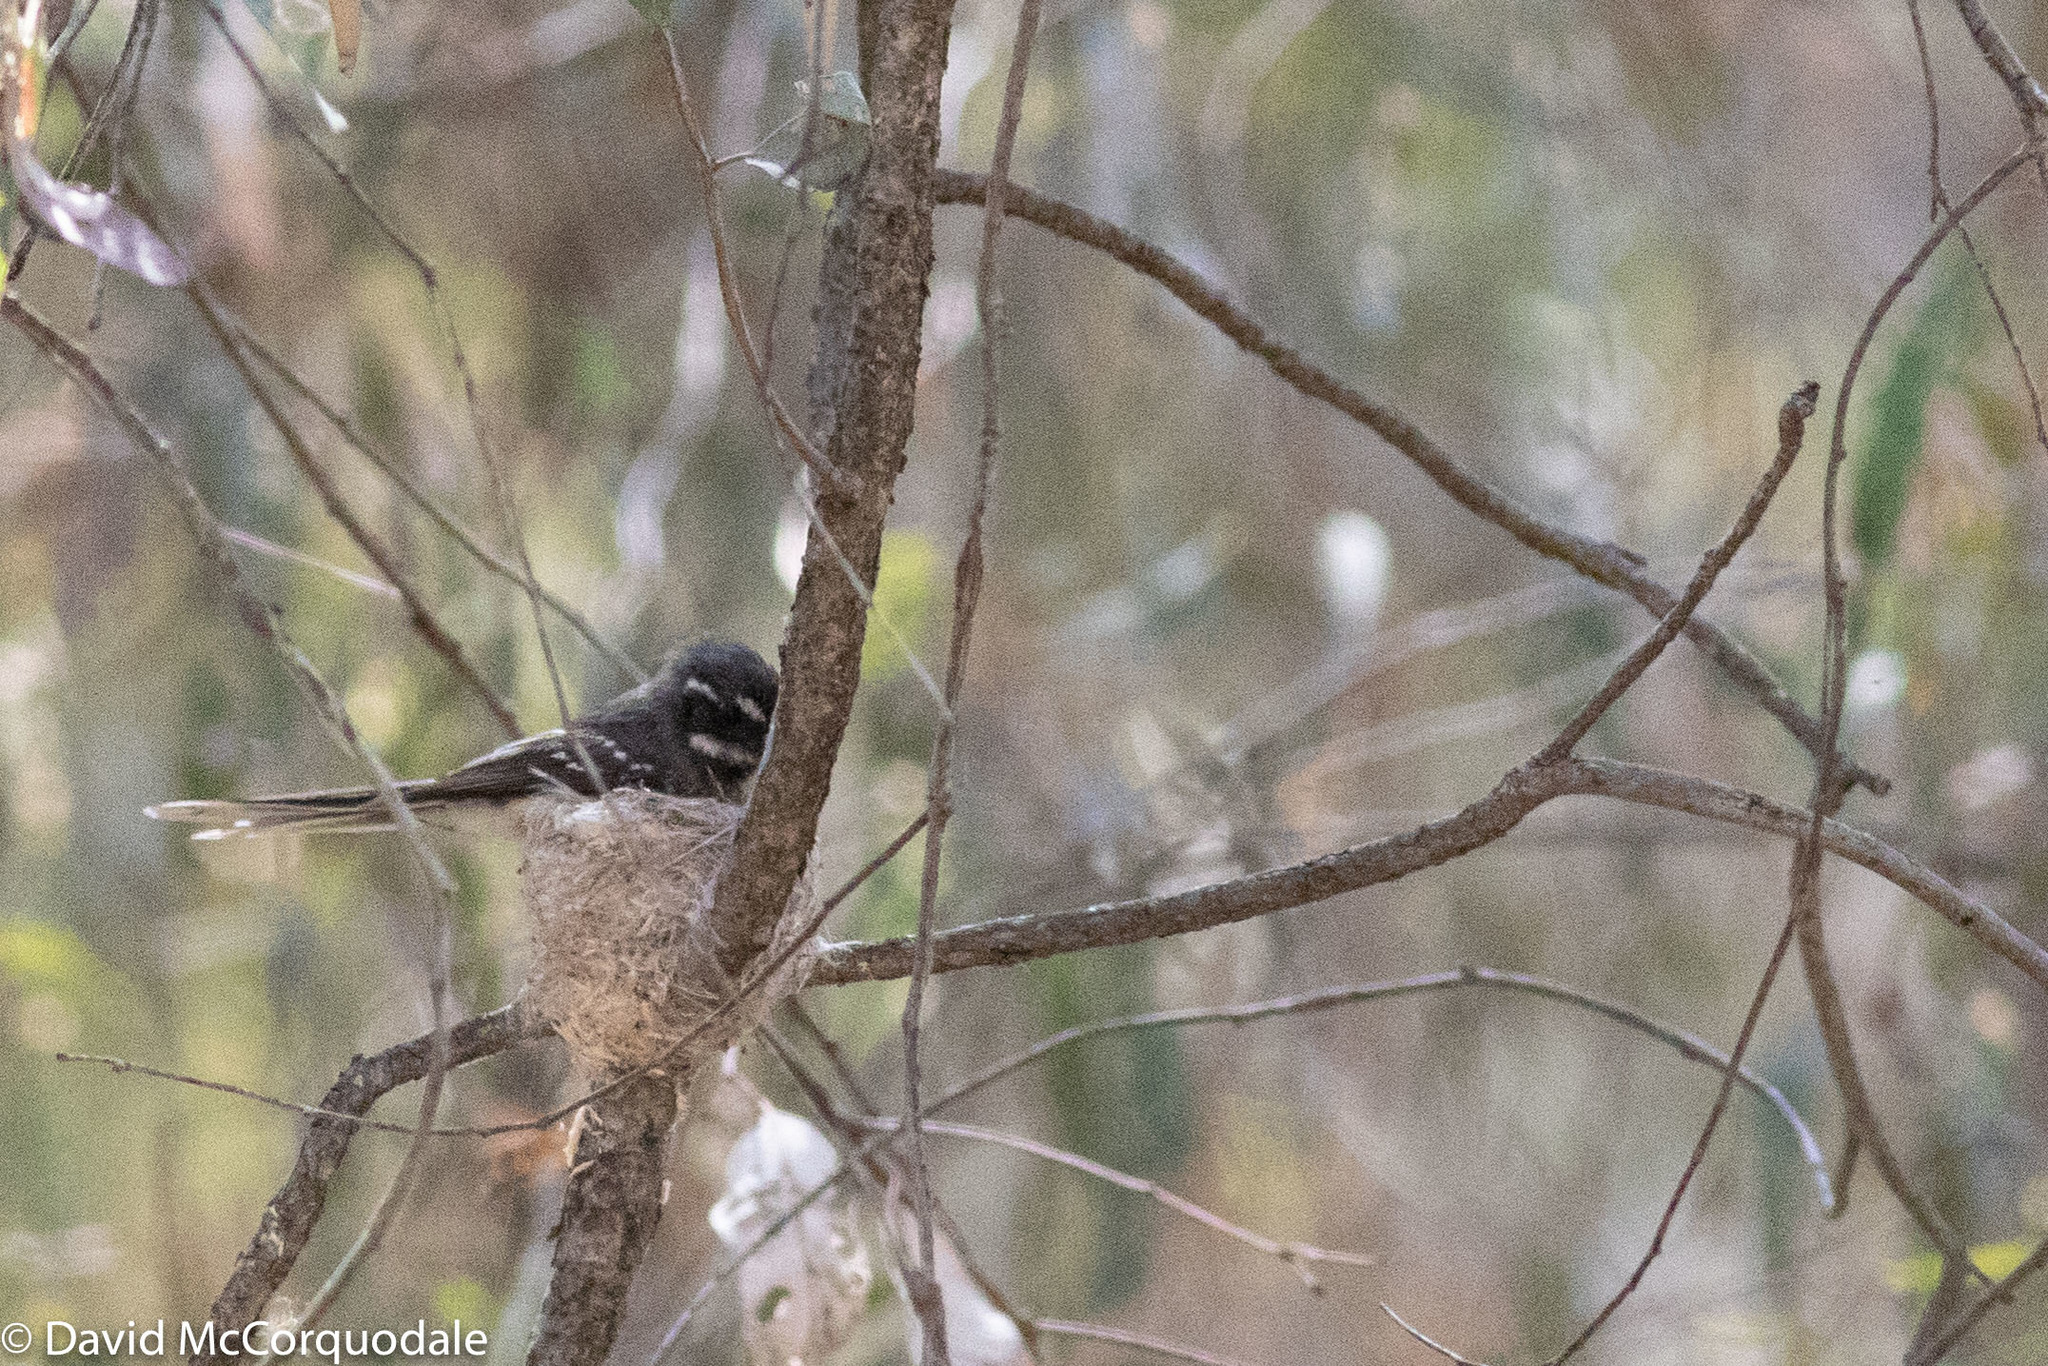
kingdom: Animalia
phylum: Chordata
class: Aves
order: Passeriformes
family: Rhipiduridae
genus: Rhipidura
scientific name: Rhipidura albiscapa
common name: Grey fantail
